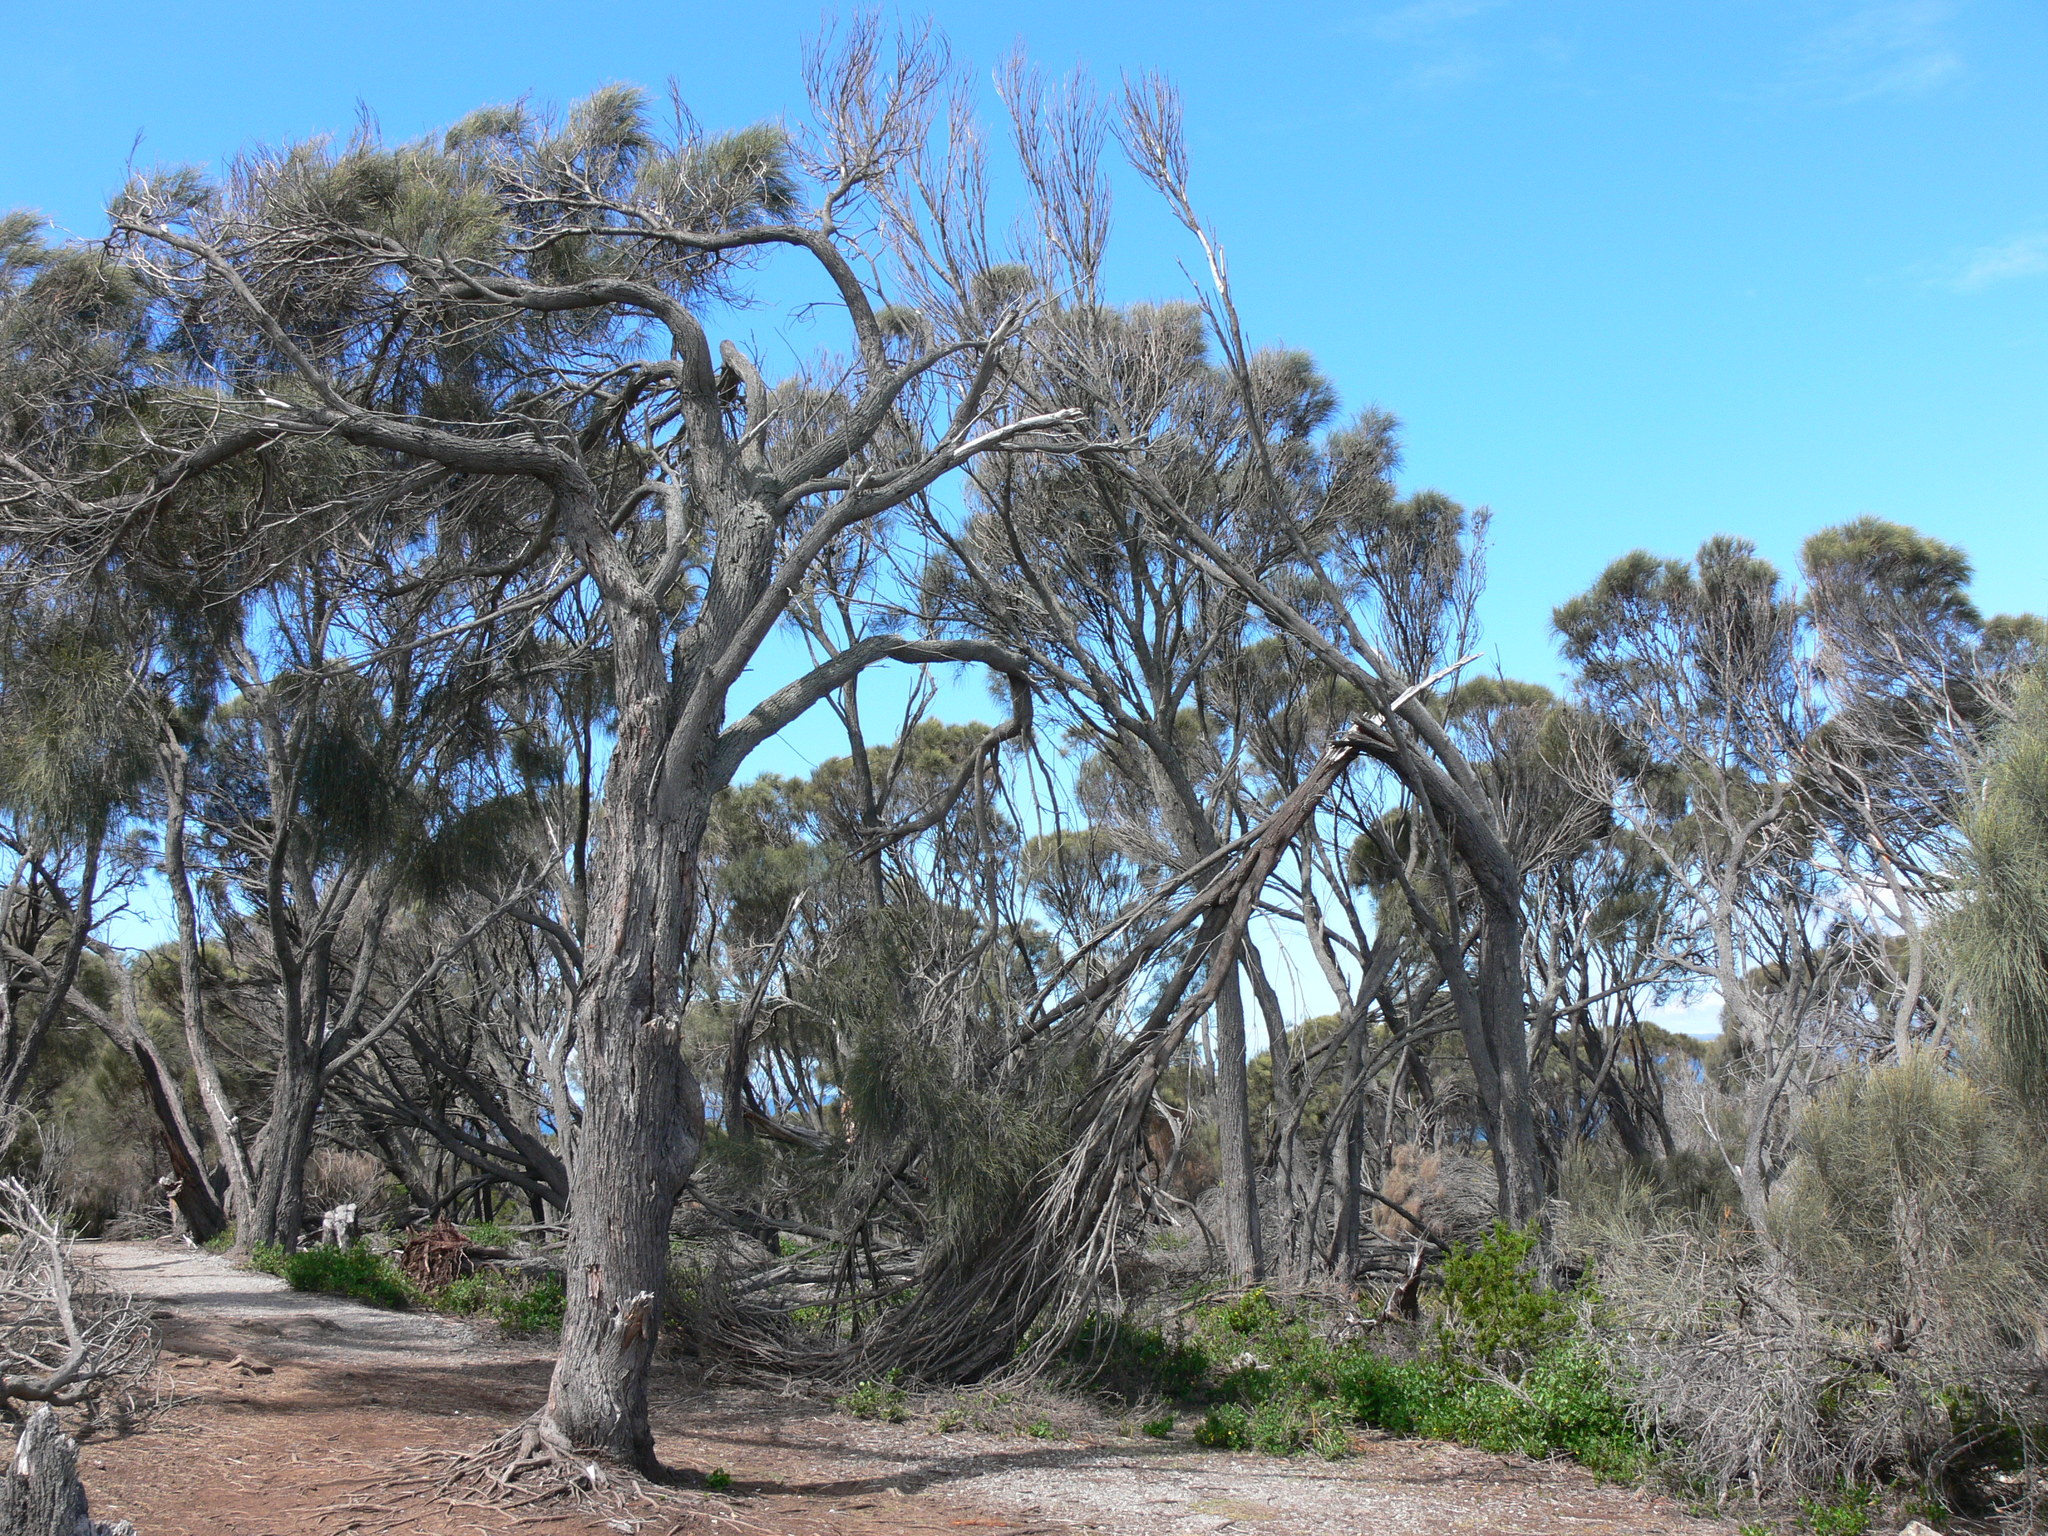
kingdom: Plantae
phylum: Tracheophyta
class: Magnoliopsida
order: Fagales
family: Casuarinaceae
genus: Allocasuarina
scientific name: Allocasuarina verticillata
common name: Drooping she-oak
